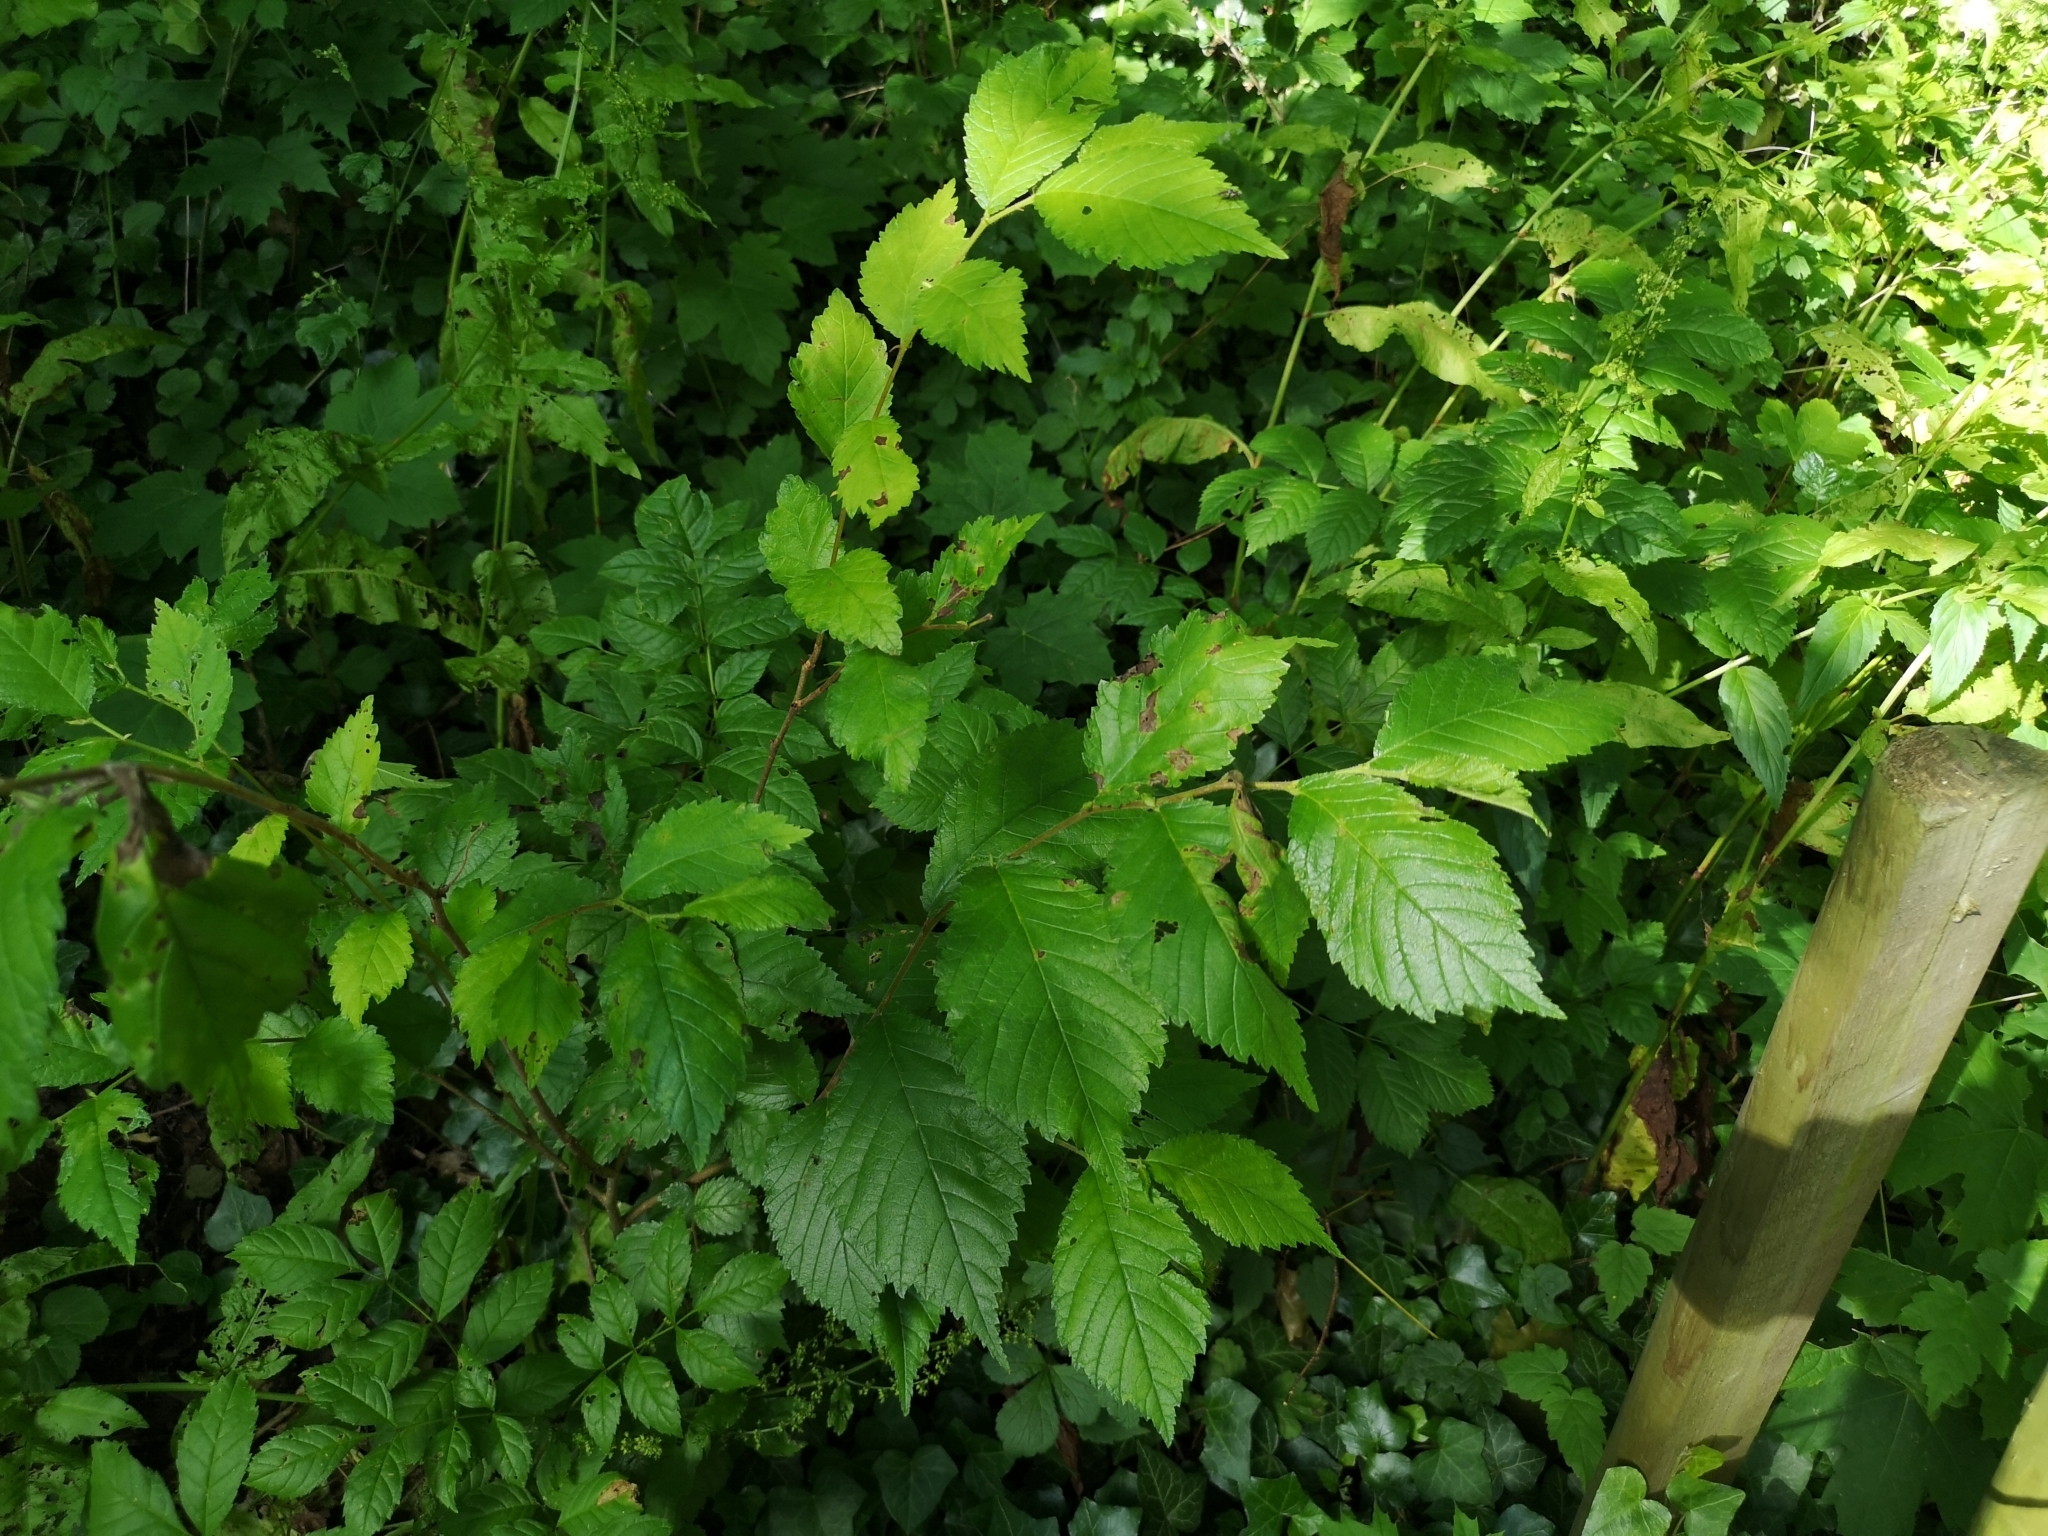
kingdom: Plantae
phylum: Tracheophyta
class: Magnoliopsida
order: Rosales
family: Ulmaceae
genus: Ulmus
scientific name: Ulmus minor
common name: Small-leaved elm
